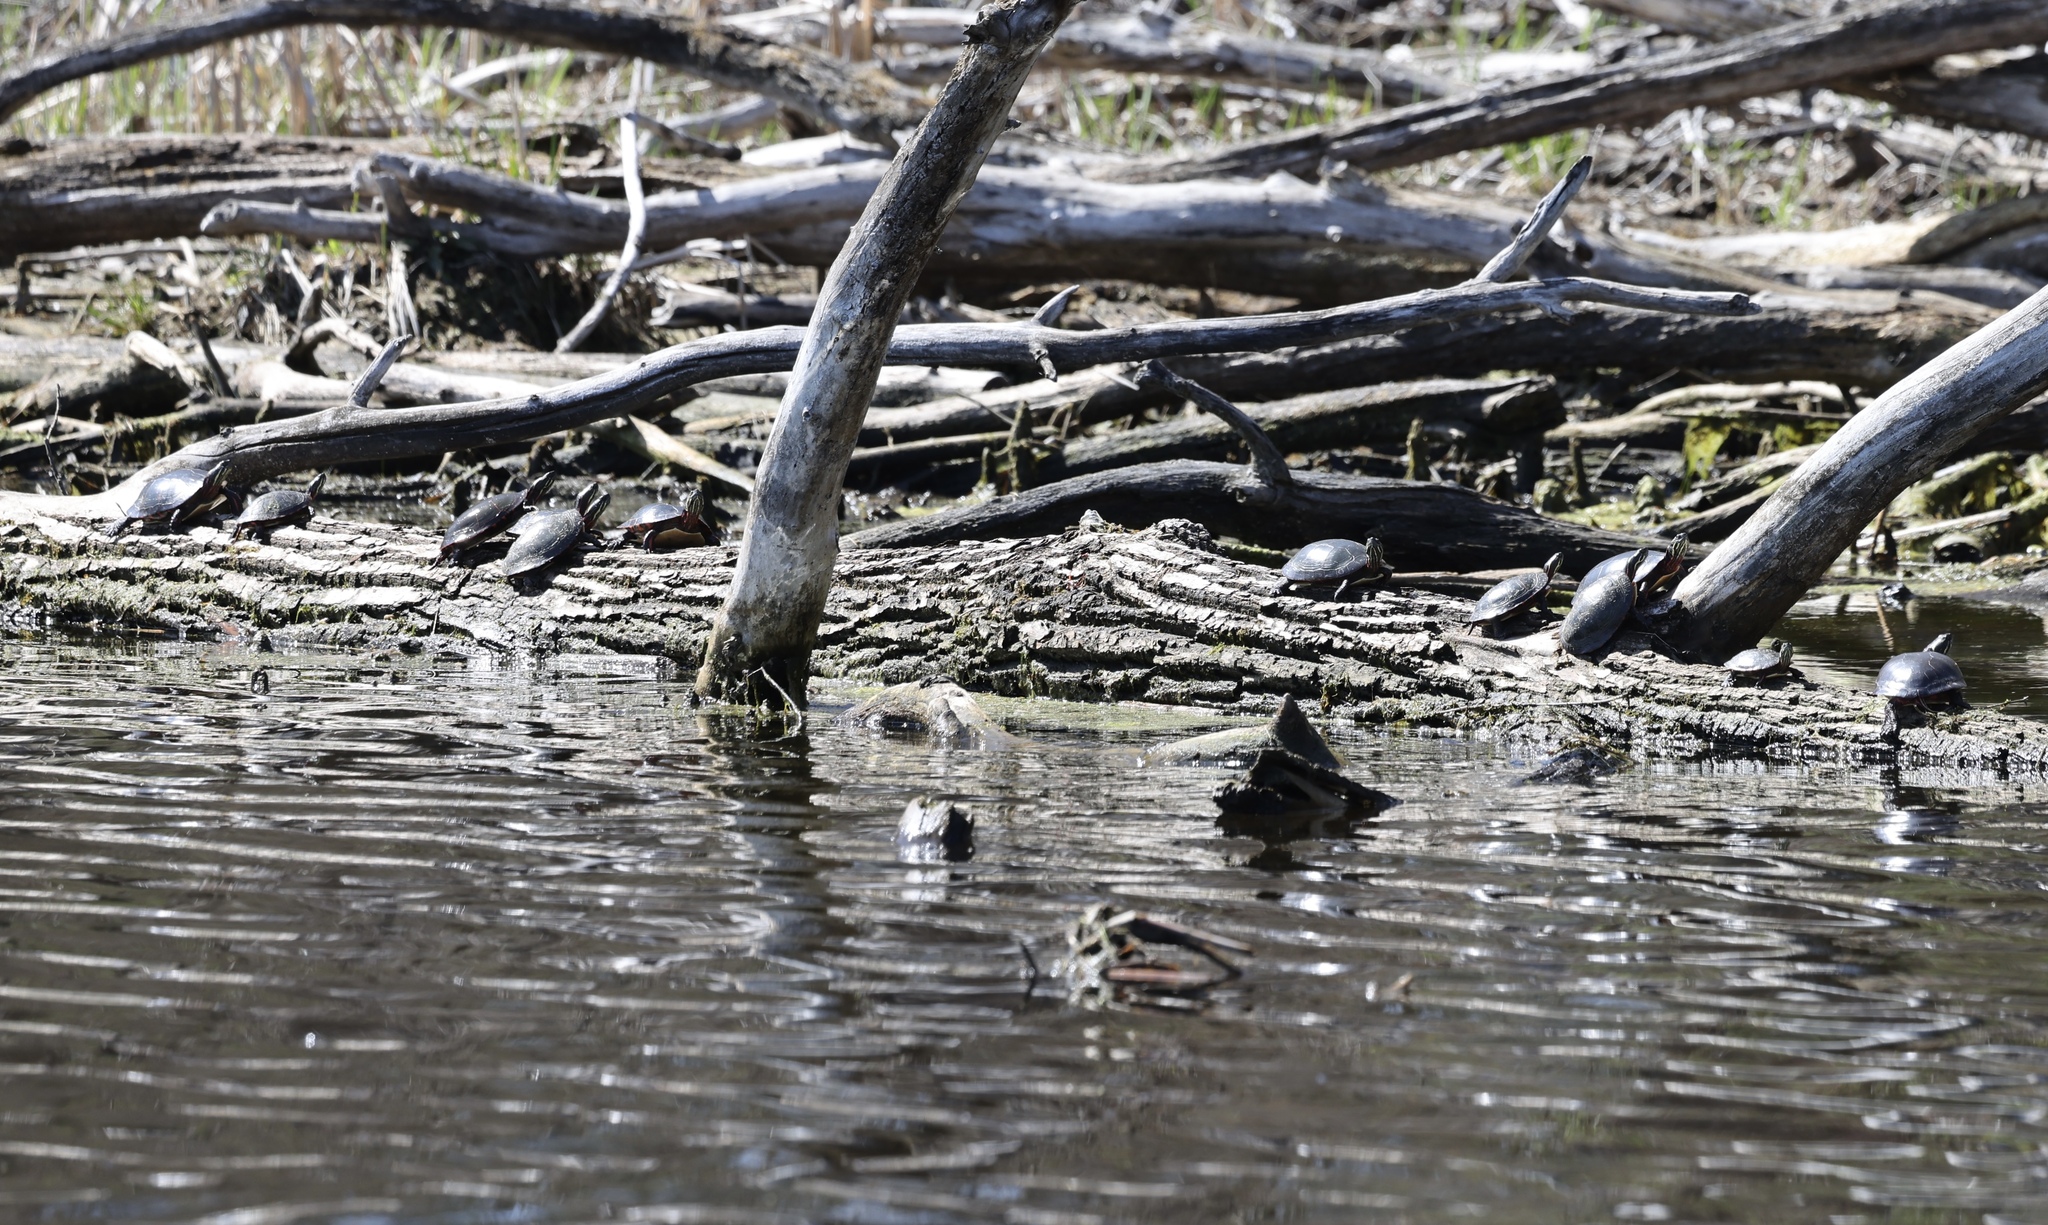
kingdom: Animalia
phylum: Chordata
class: Testudines
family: Emydidae
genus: Chrysemys
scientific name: Chrysemys picta
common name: Painted turtle
